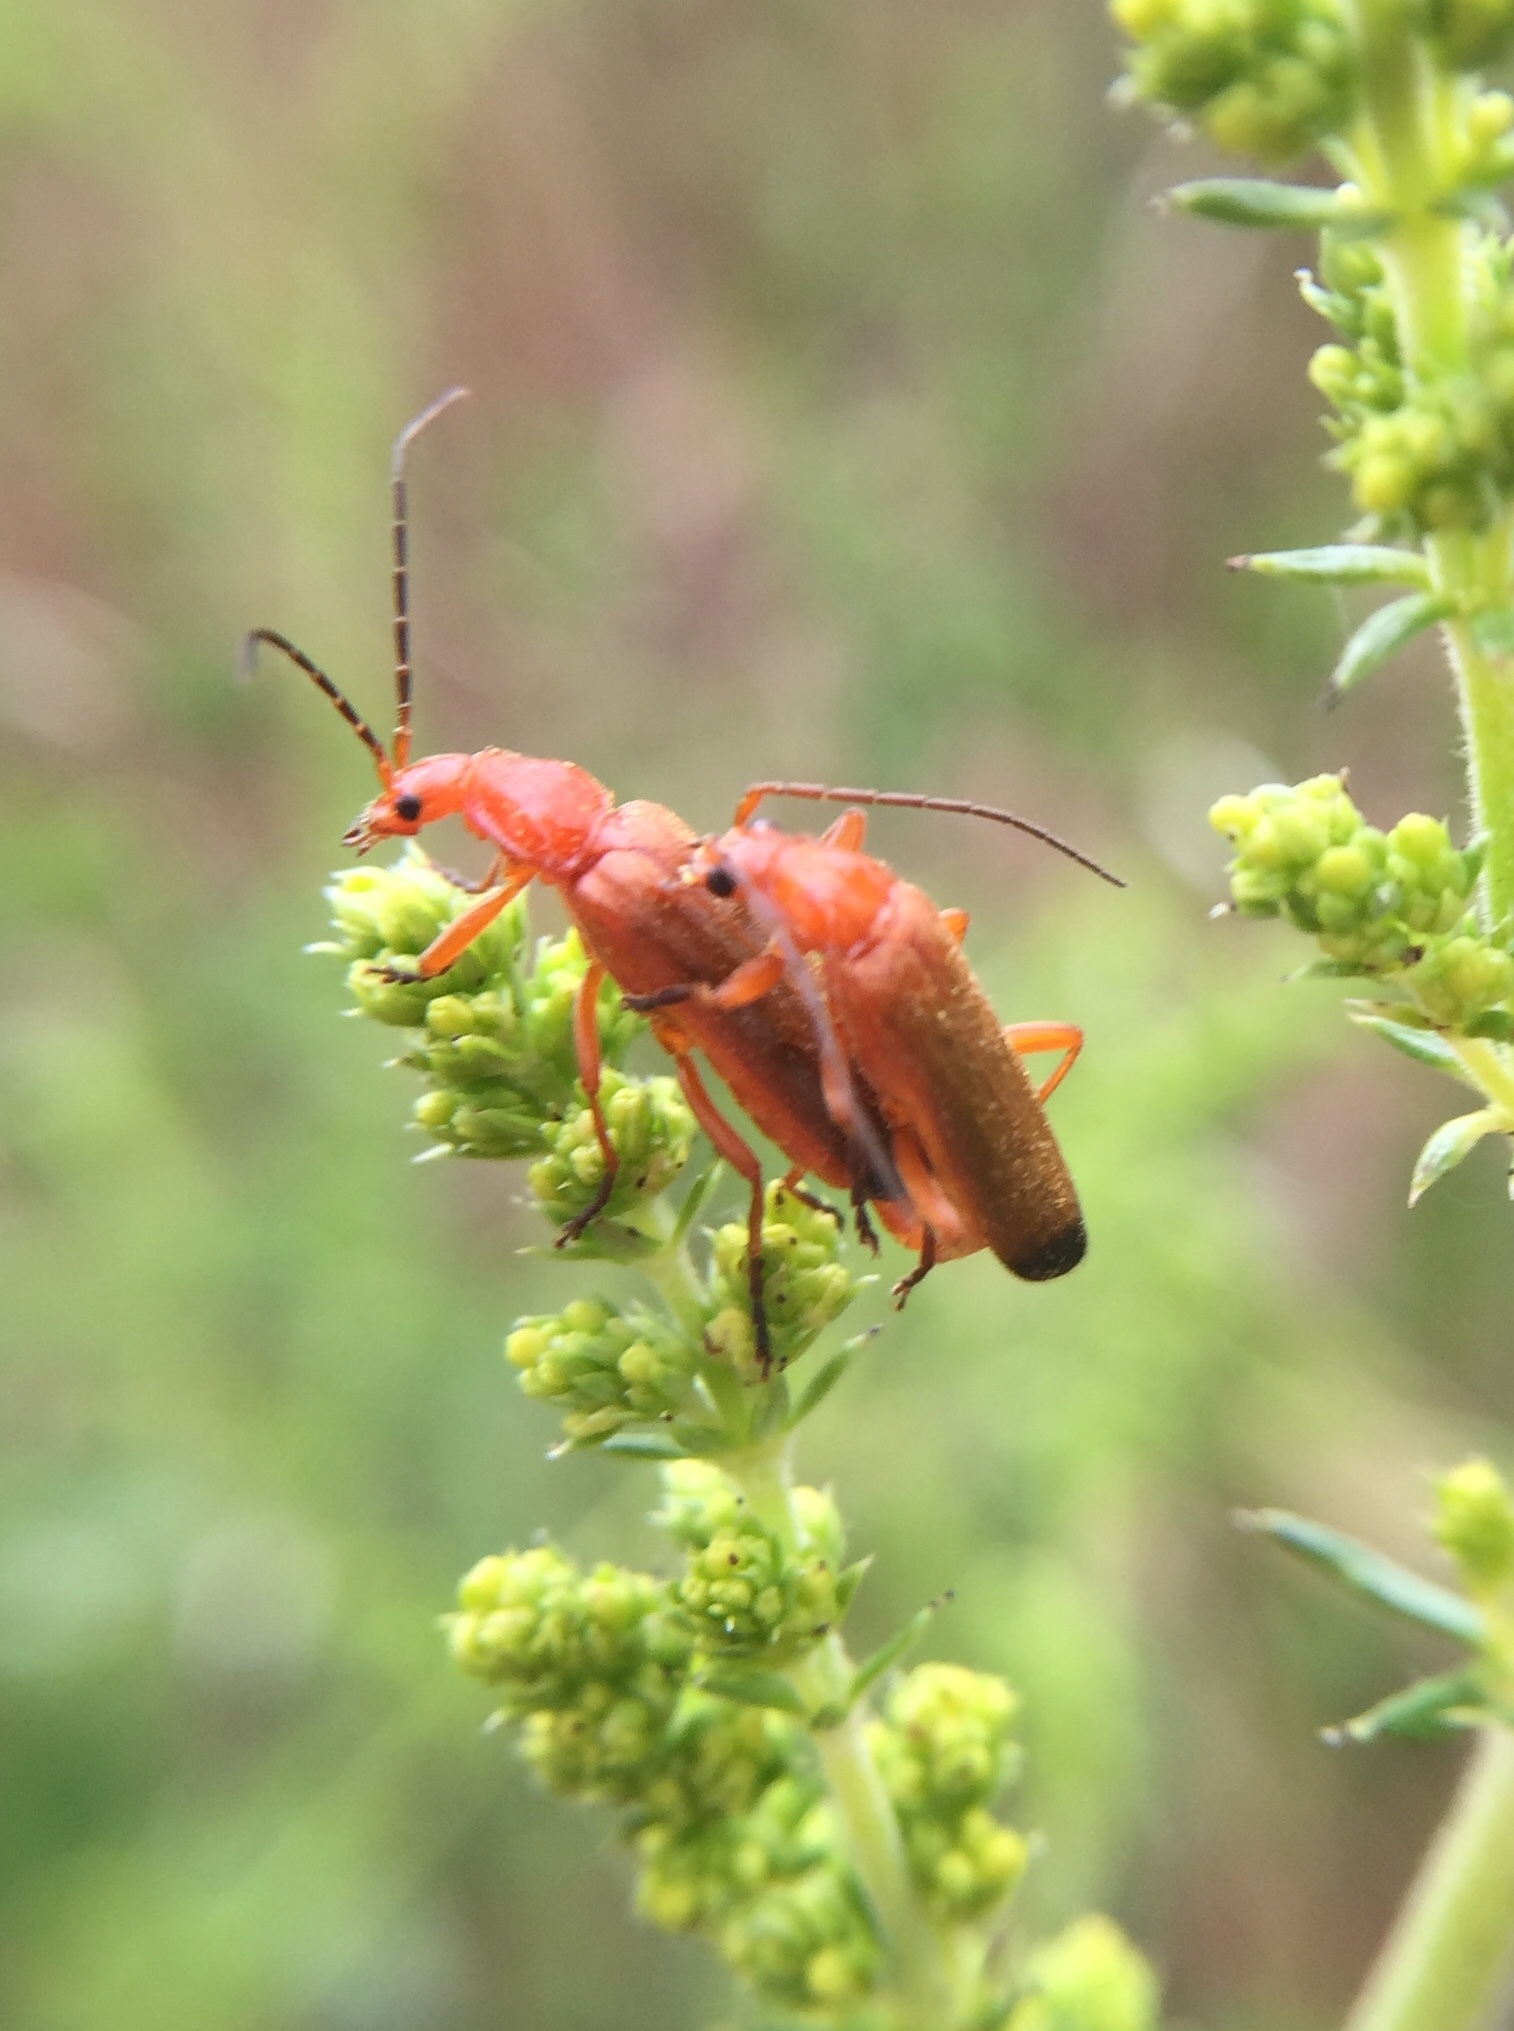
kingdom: Animalia
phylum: Arthropoda
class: Insecta
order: Coleoptera
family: Cantharidae
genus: Rhagonycha
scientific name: Rhagonycha fulva
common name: Common red soldier beetle
